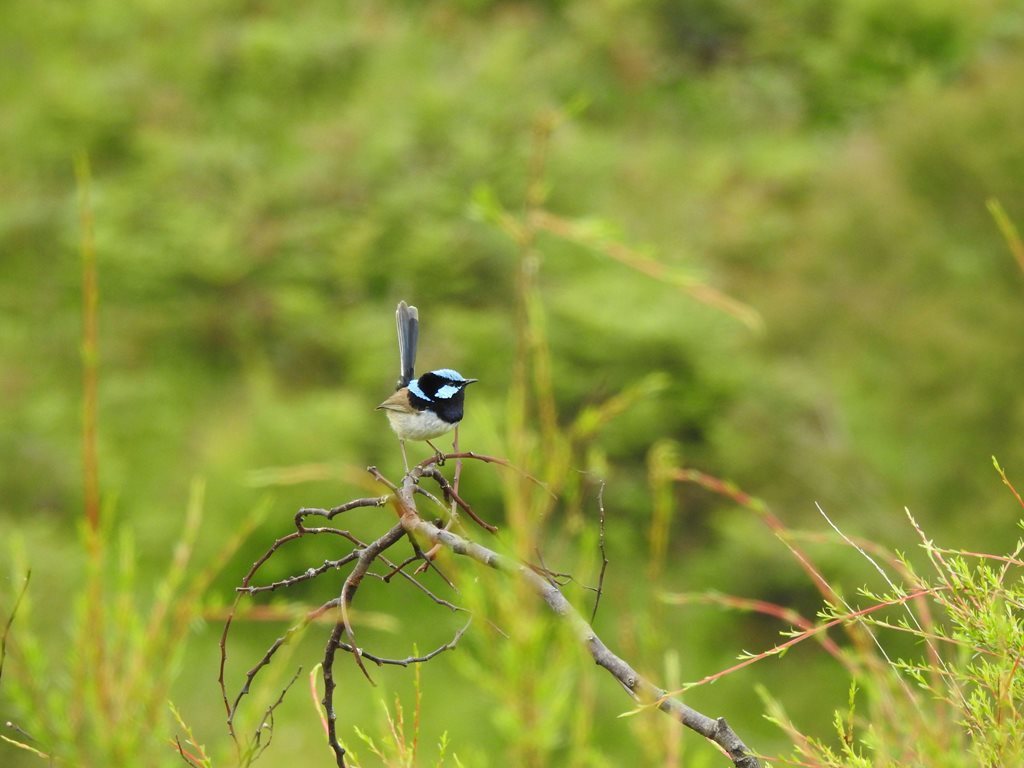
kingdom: Animalia
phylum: Chordata
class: Aves
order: Passeriformes
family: Maluridae
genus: Malurus
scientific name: Malurus cyaneus
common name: Superb fairywren
